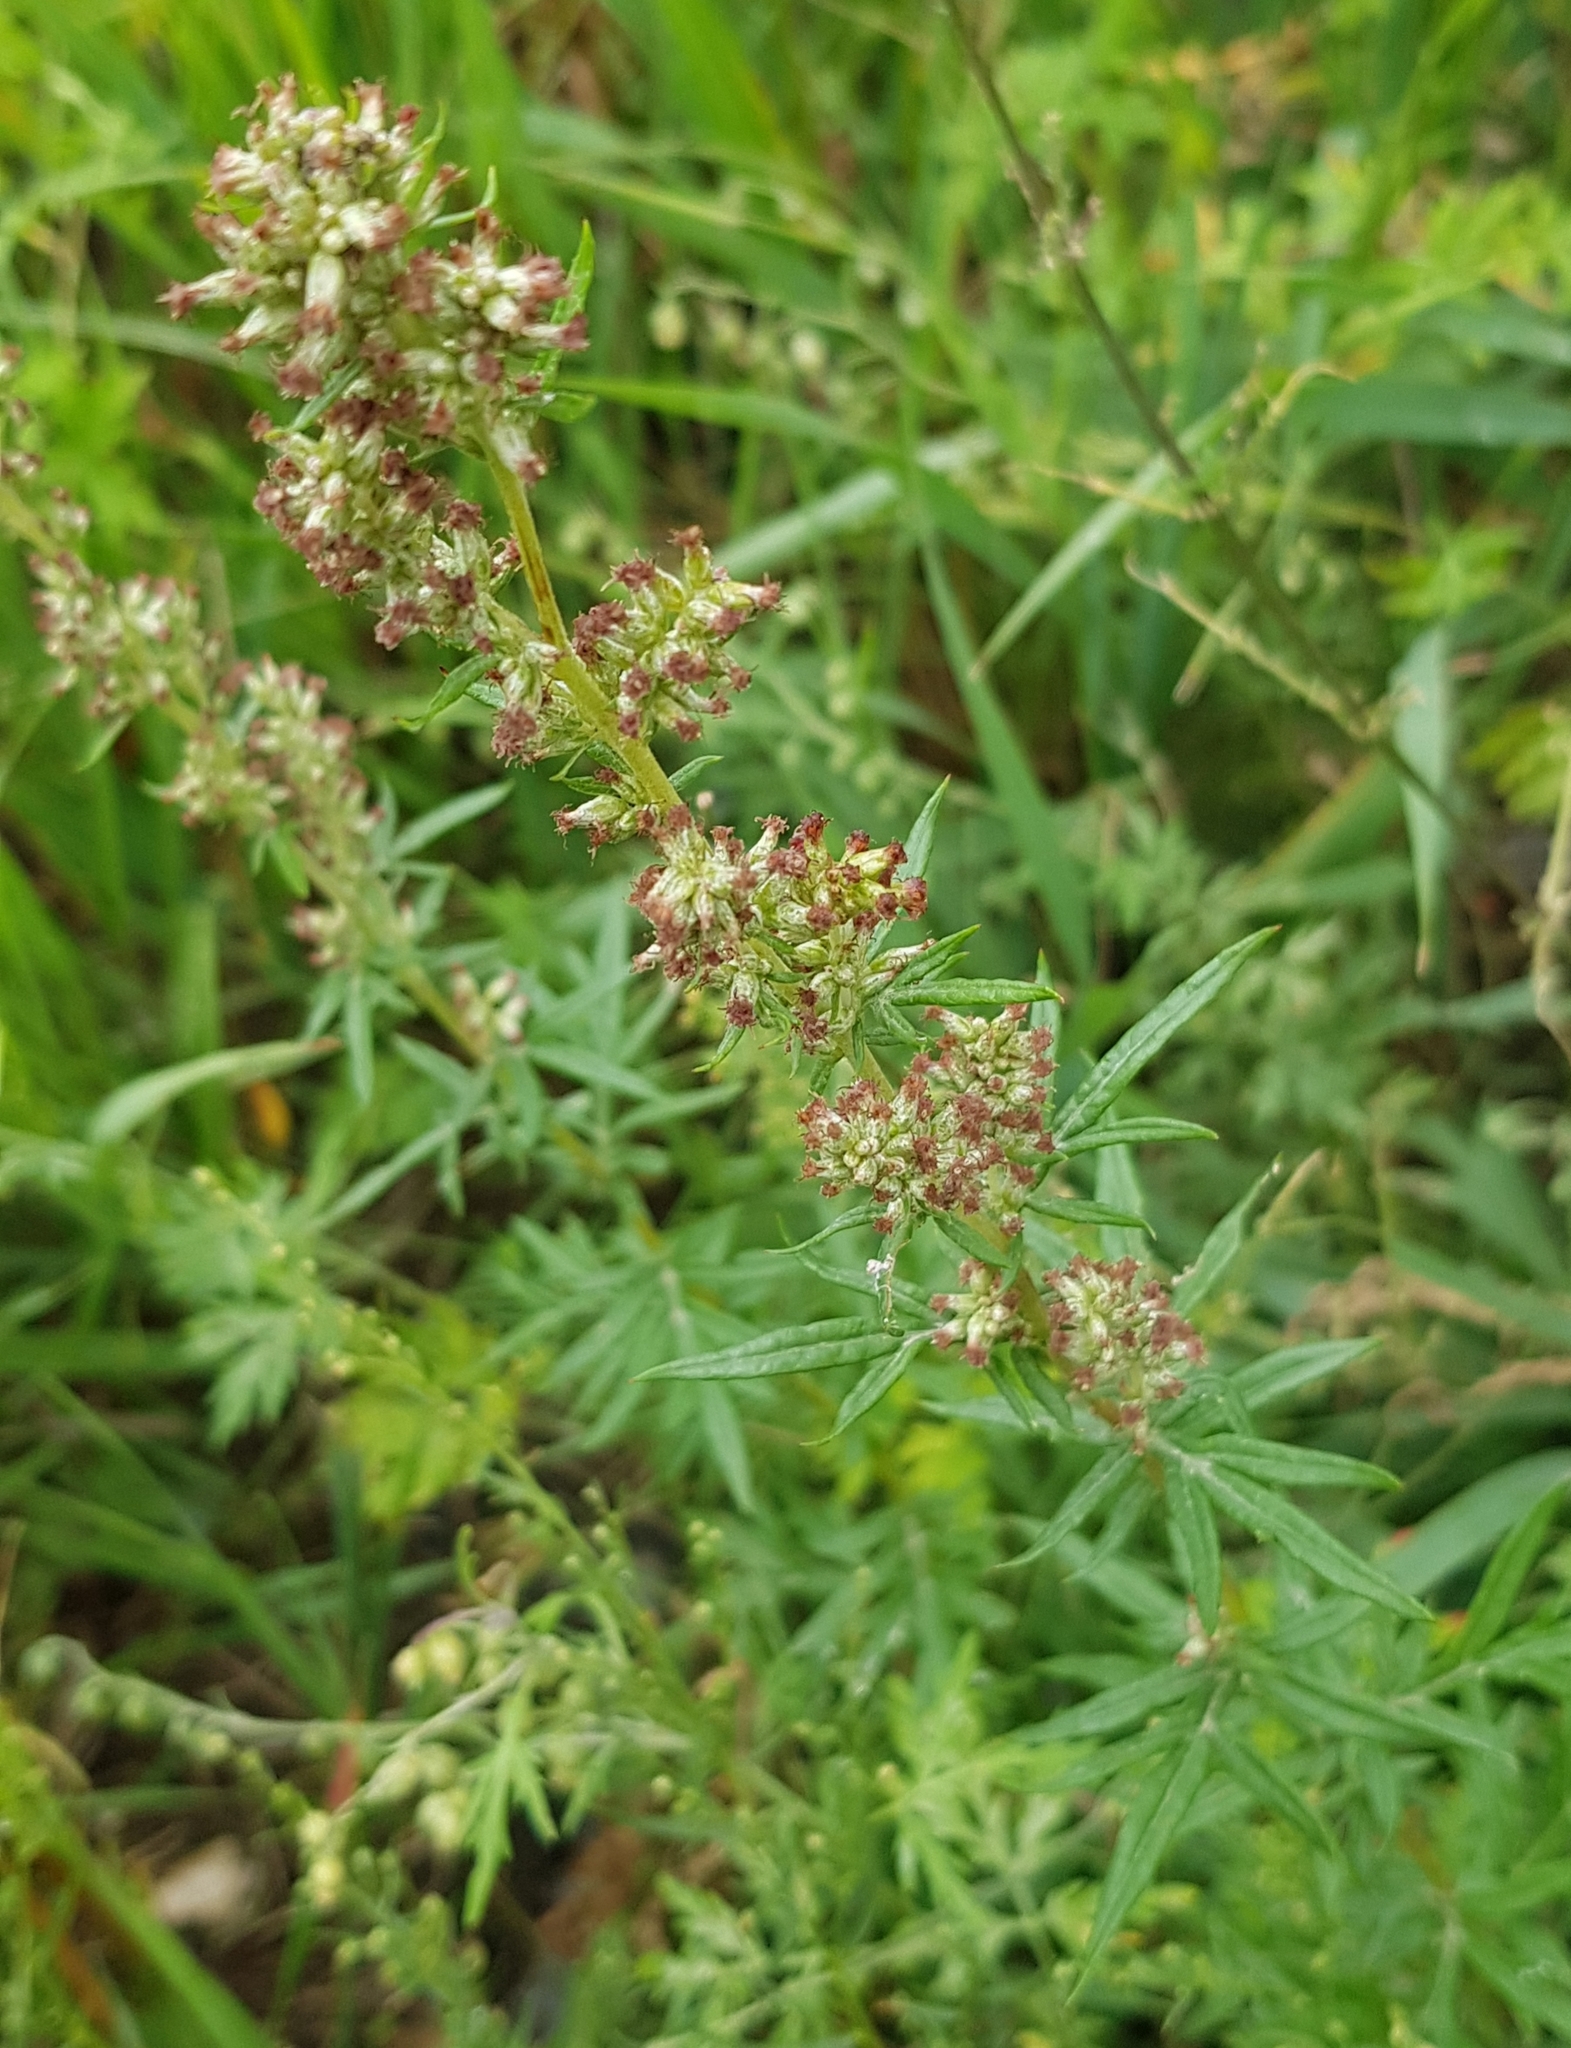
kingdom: Plantae
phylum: Tracheophyta
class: Magnoliopsida
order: Asterales
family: Asteraceae
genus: Artemisia
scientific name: Artemisia vulgaris
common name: Mugwort
